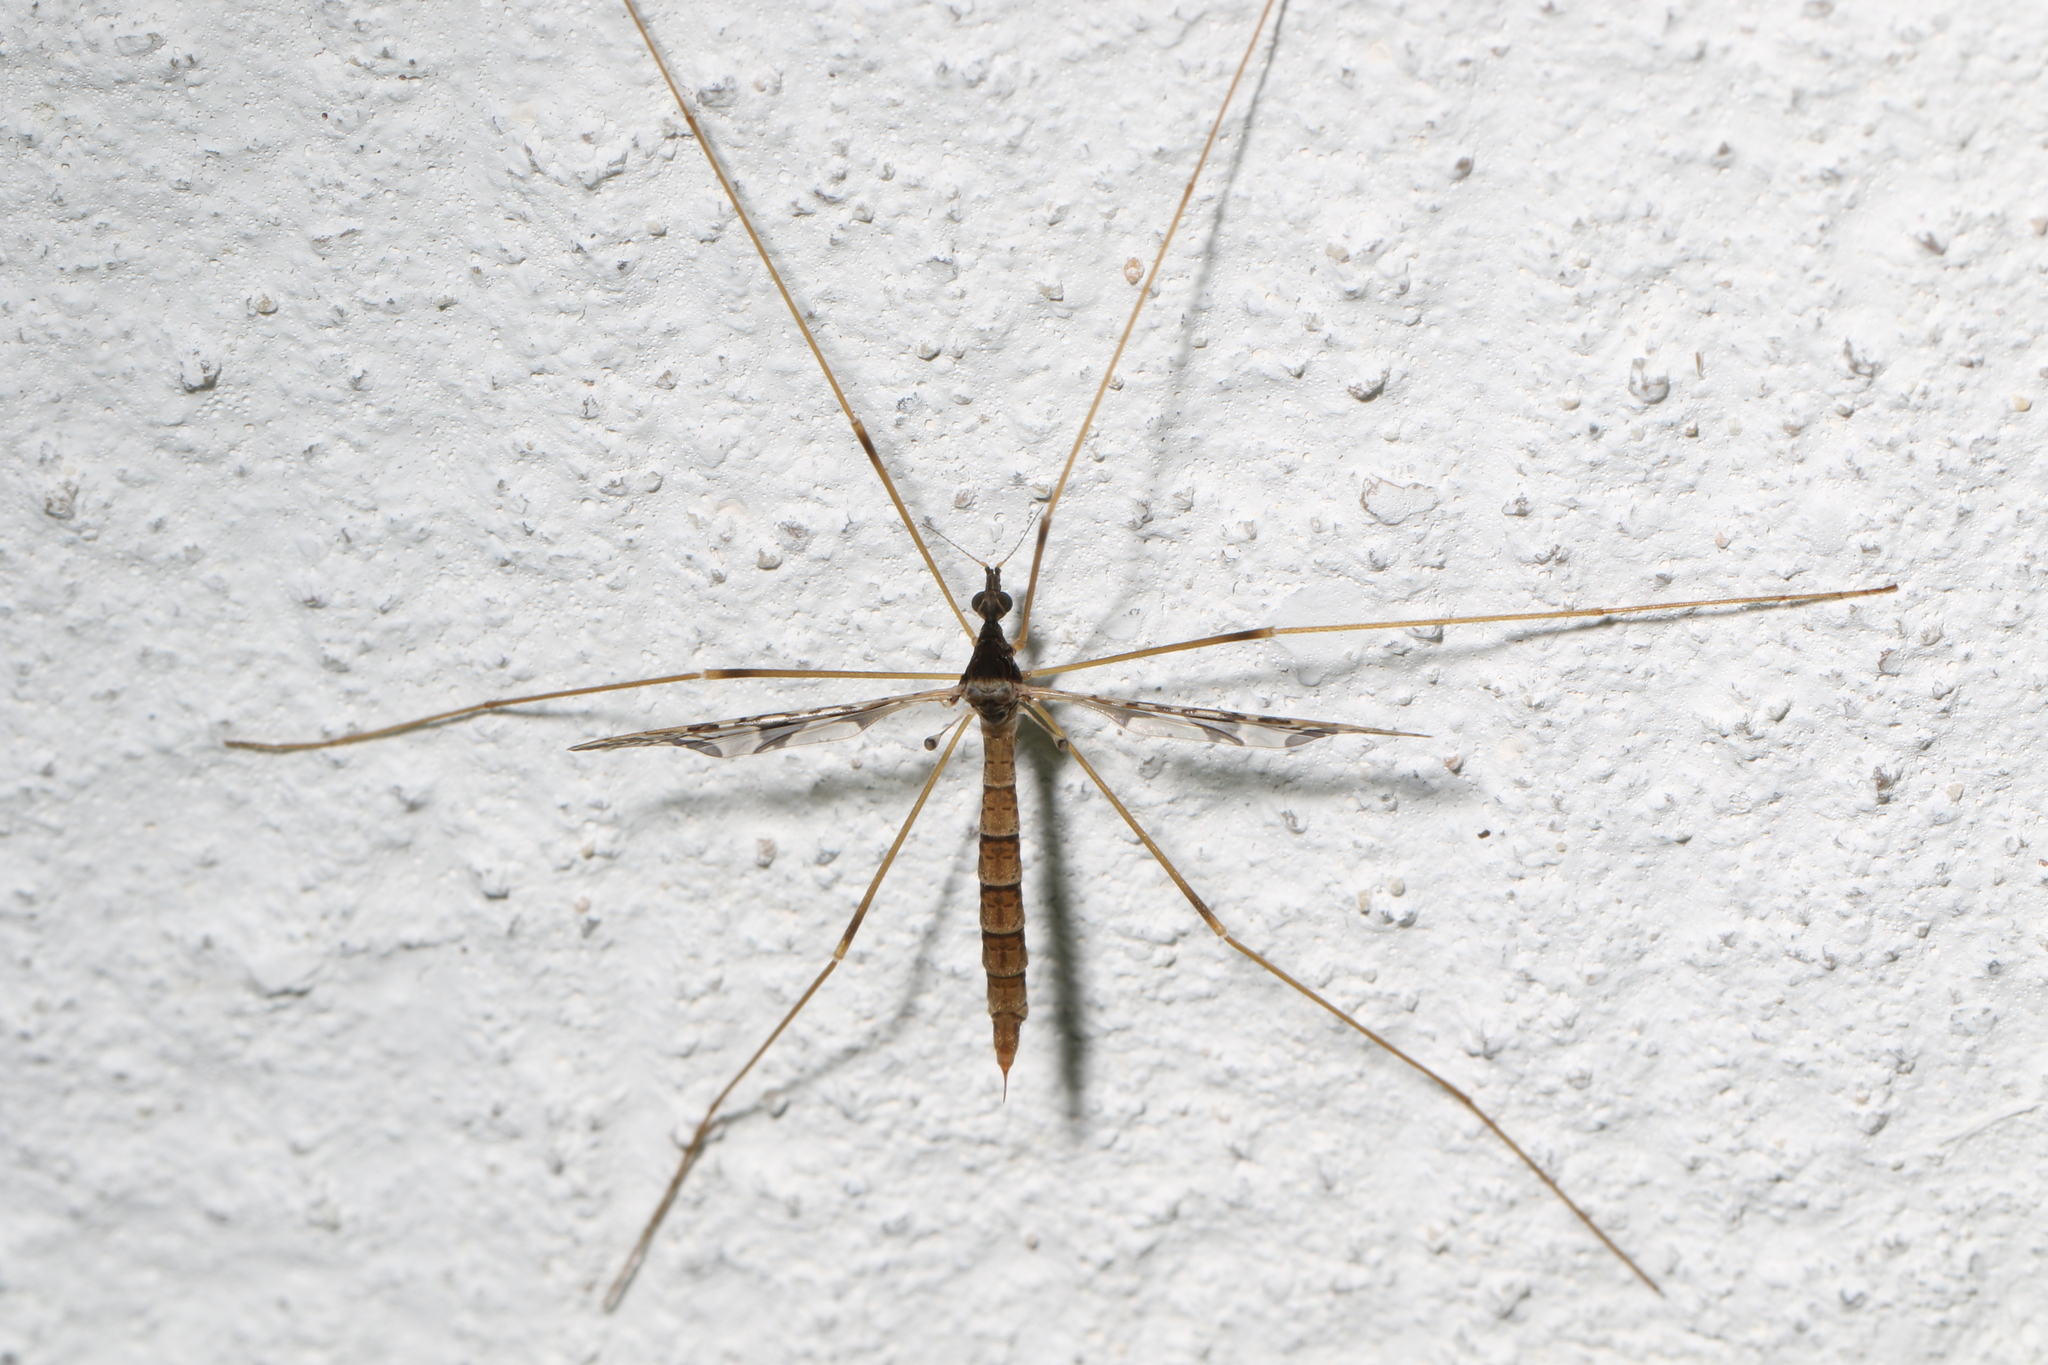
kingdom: Animalia
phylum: Arthropoda
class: Insecta
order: Diptera
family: Limoniidae
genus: Epiphragma
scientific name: Epiphragma solatrix
